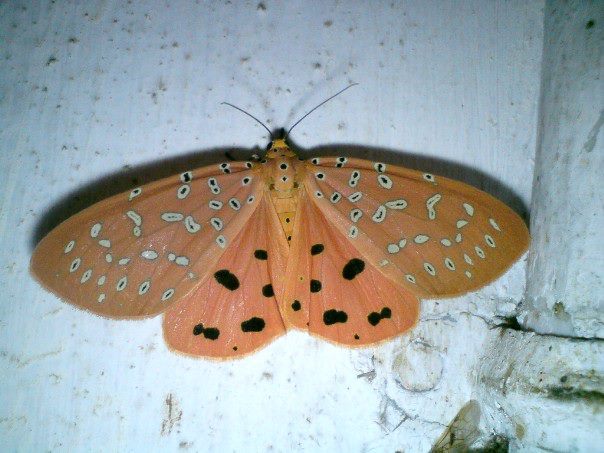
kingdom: Animalia
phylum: Arthropoda
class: Insecta
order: Lepidoptera
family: Erebidae
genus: Mangina
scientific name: Mangina argus
